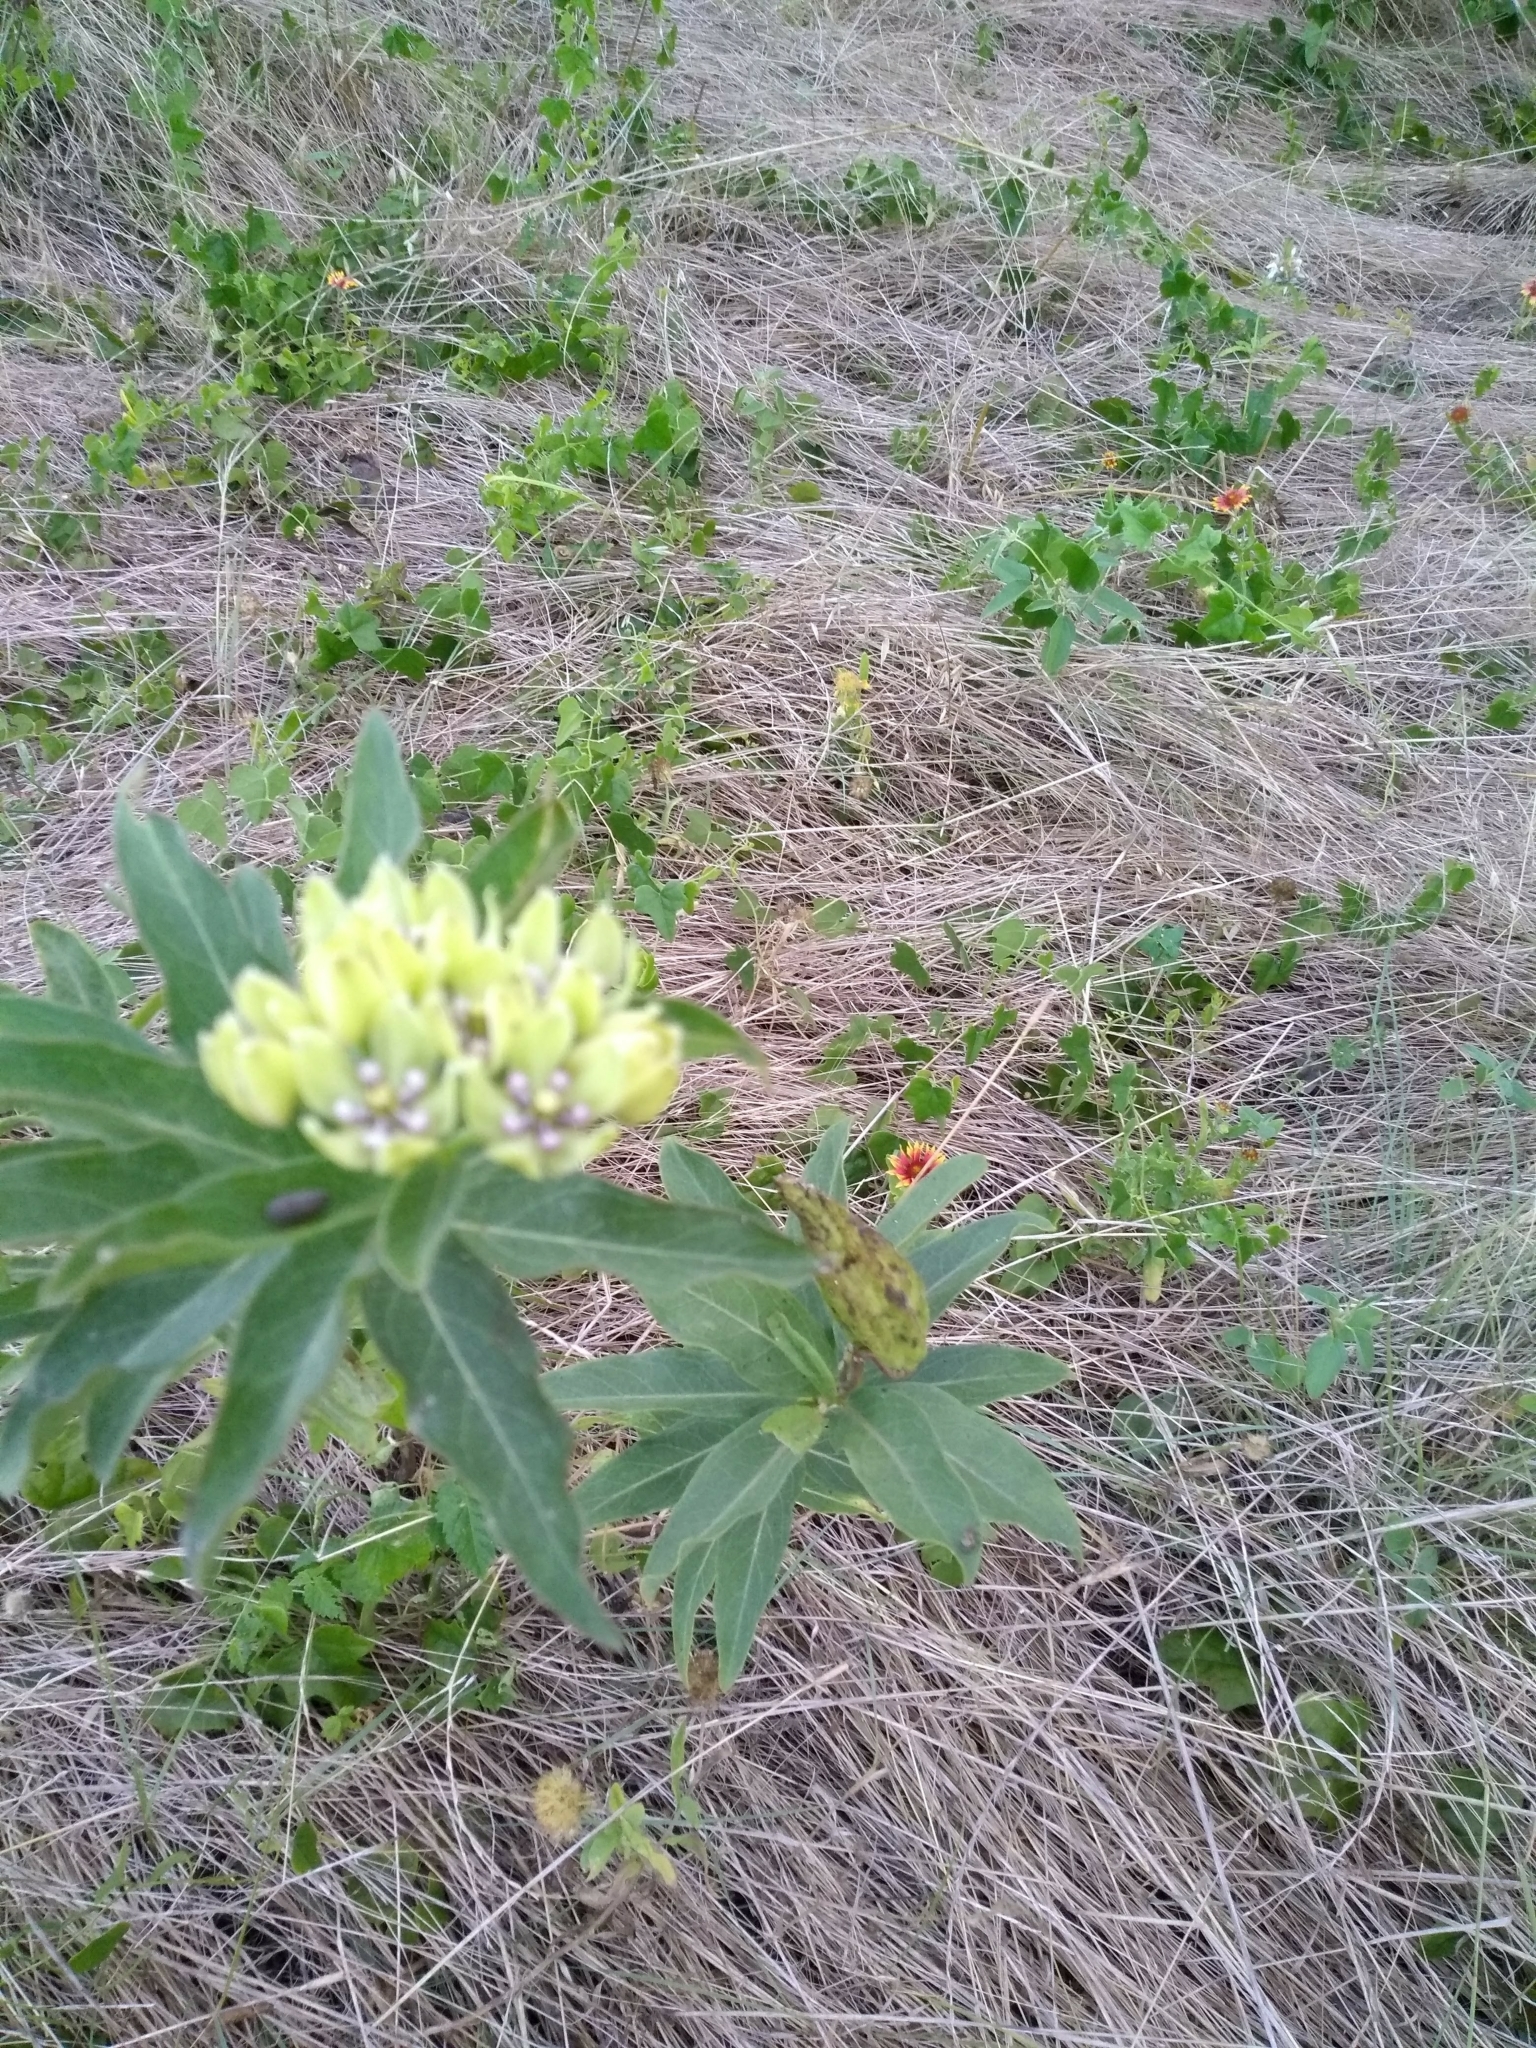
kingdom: Plantae
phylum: Tracheophyta
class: Magnoliopsida
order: Gentianales
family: Apocynaceae
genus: Asclepias
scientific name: Asclepias viridis
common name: Antelope-horns
